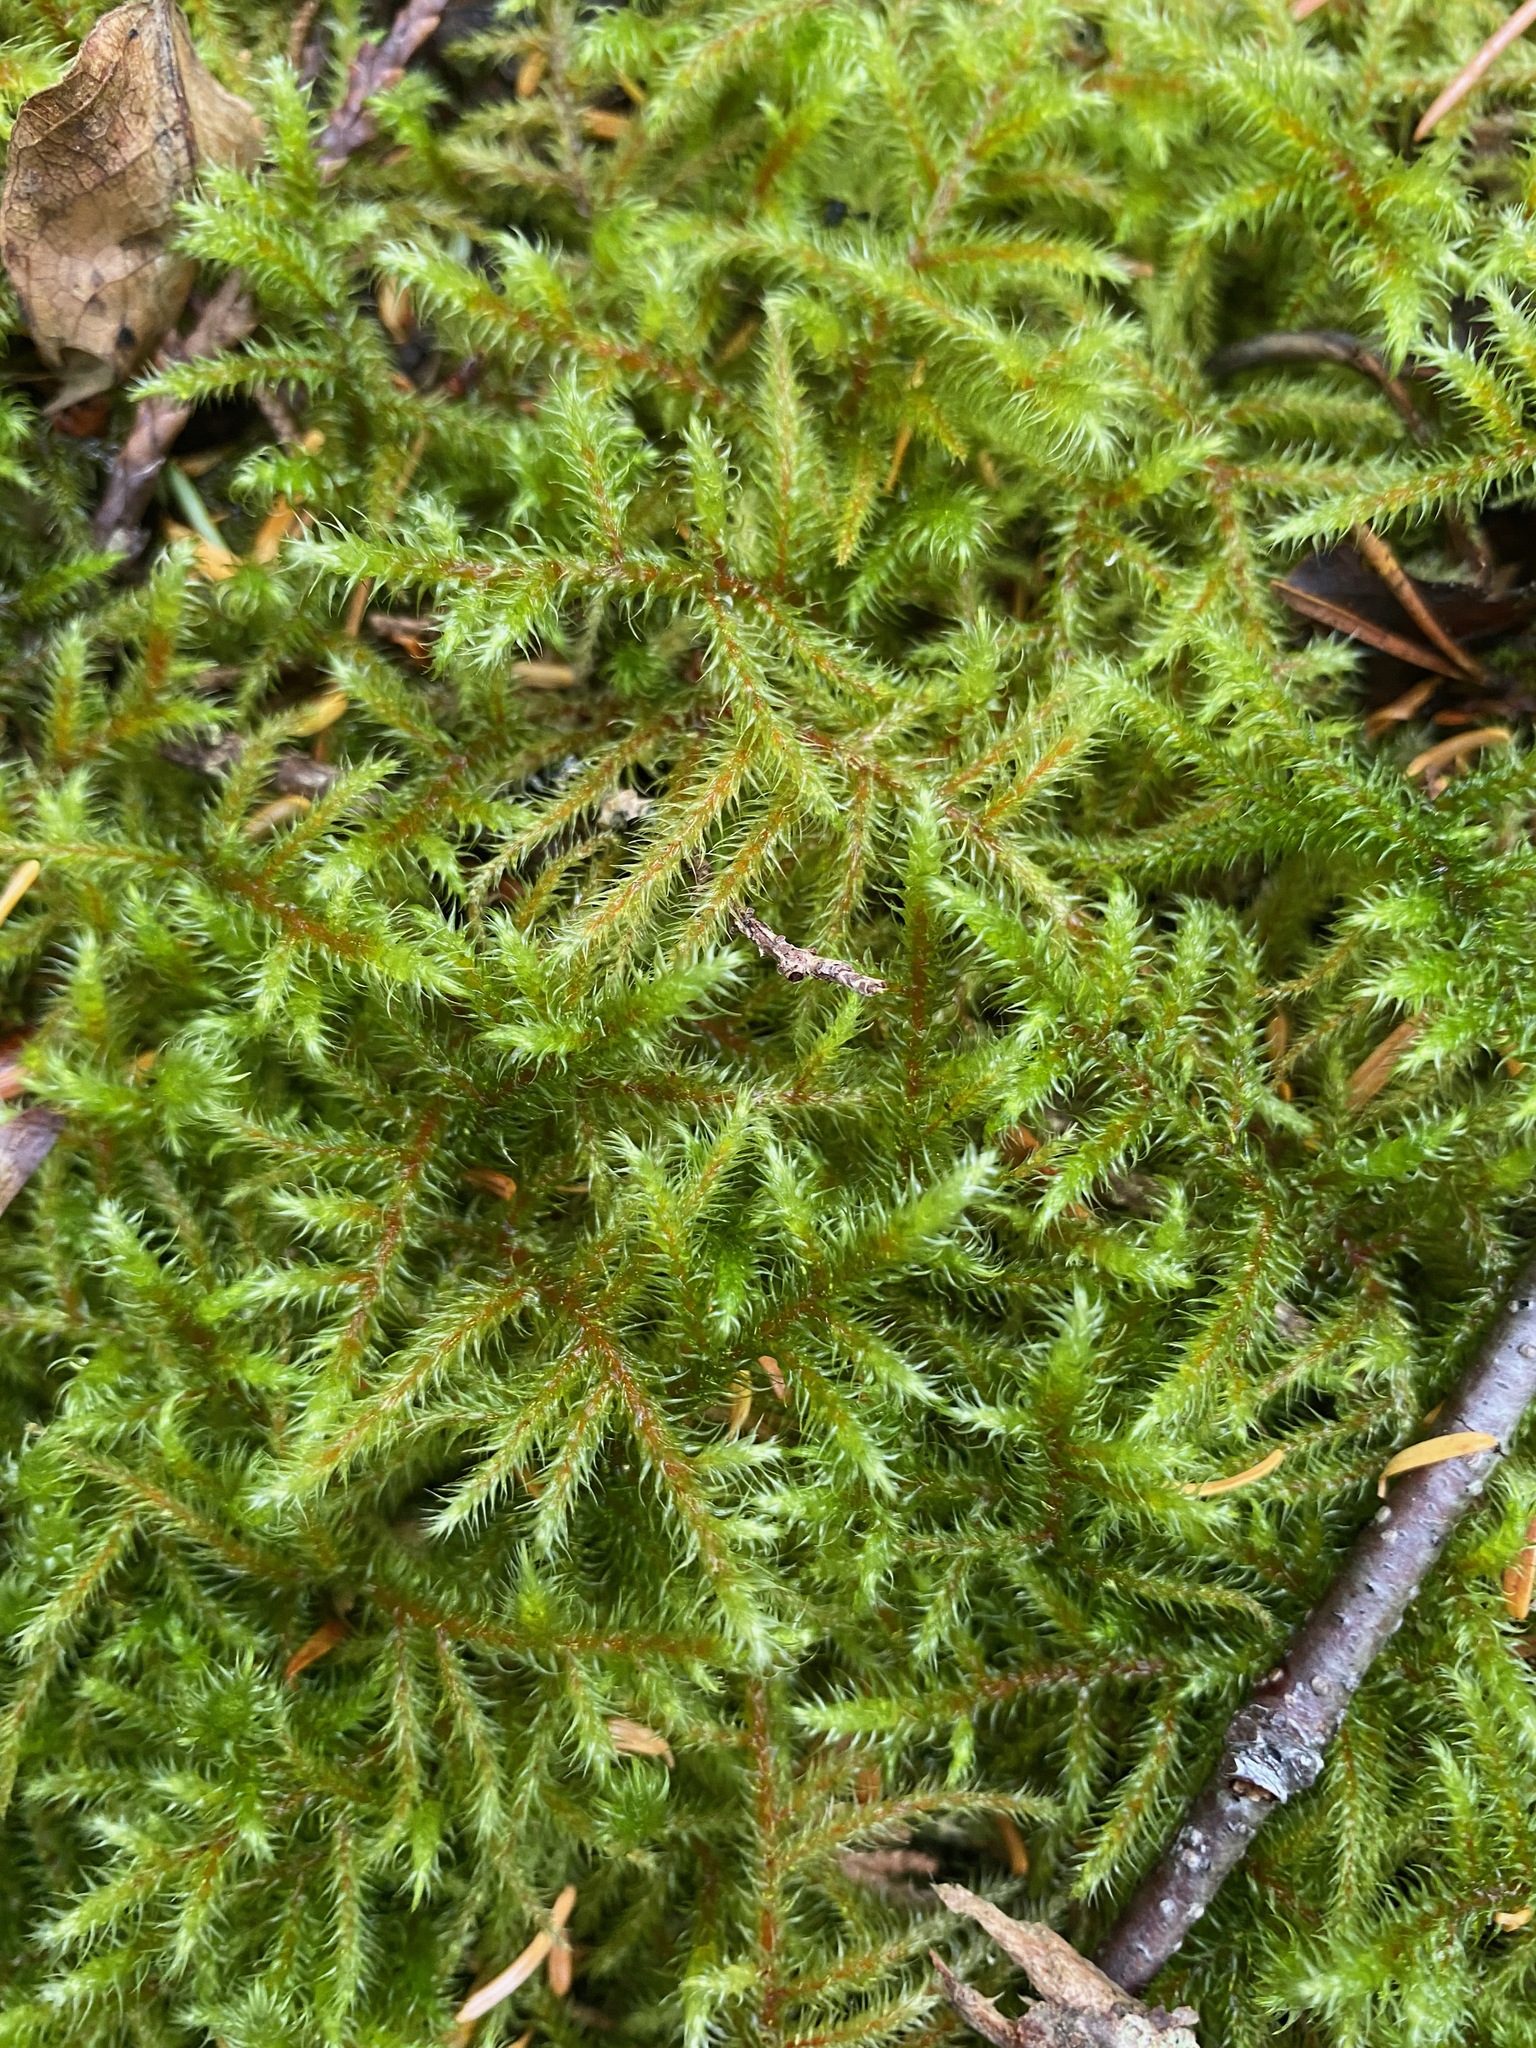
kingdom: Plantae
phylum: Bryophyta
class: Bryopsida
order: Hypnales
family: Hylocomiaceae
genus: Rhytidiadelphus
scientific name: Rhytidiadelphus loreus
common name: Lanky moss
